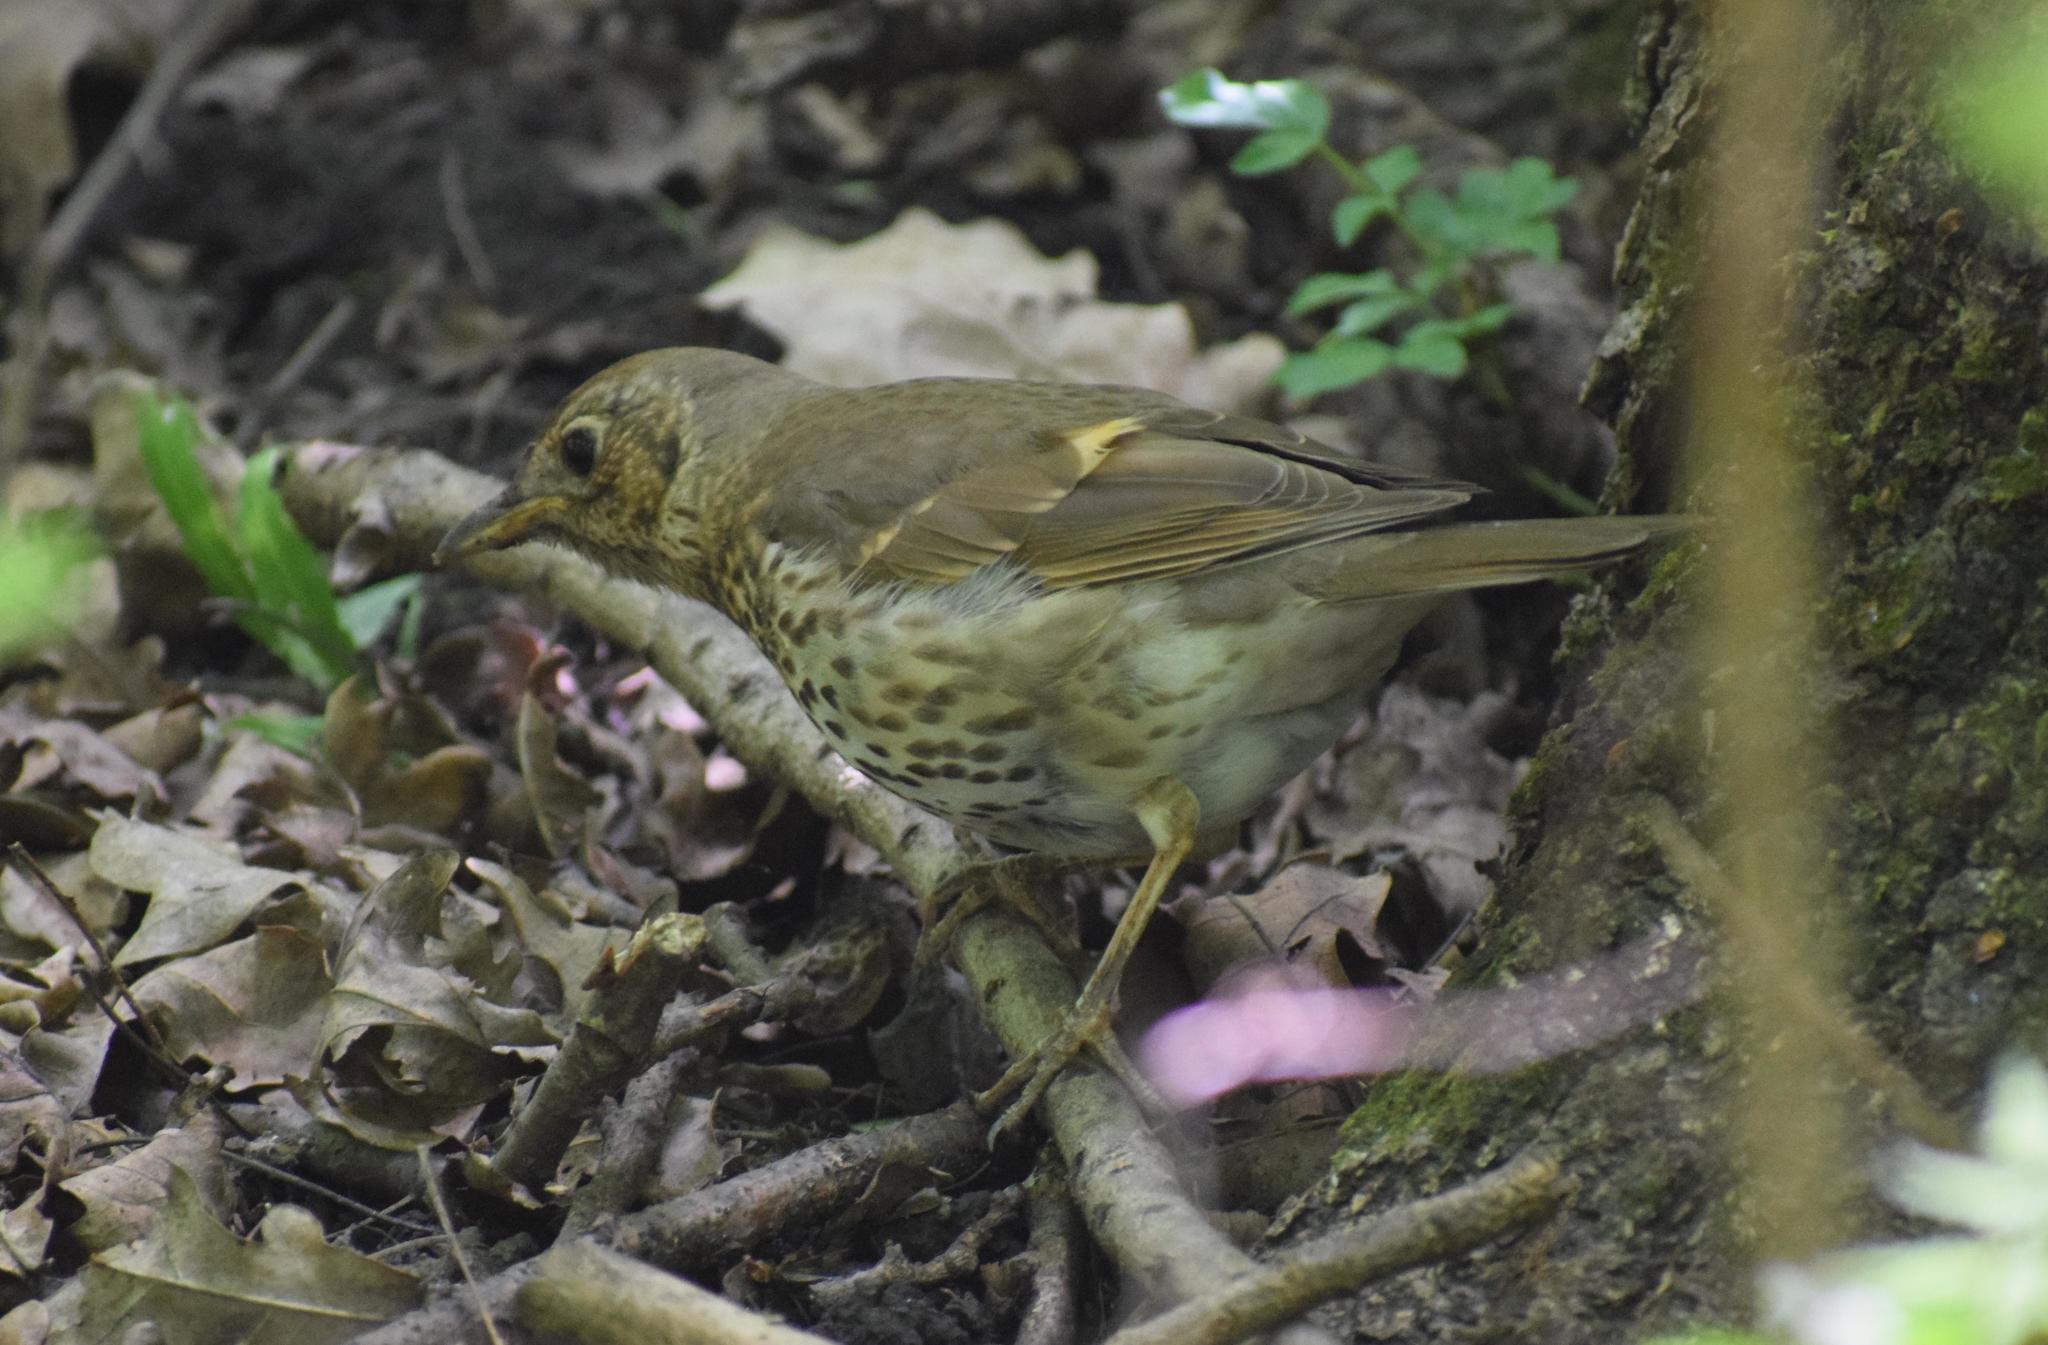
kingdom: Animalia
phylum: Chordata
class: Aves
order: Passeriformes
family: Turdidae
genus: Turdus
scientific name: Turdus philomelos
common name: Song thrush
